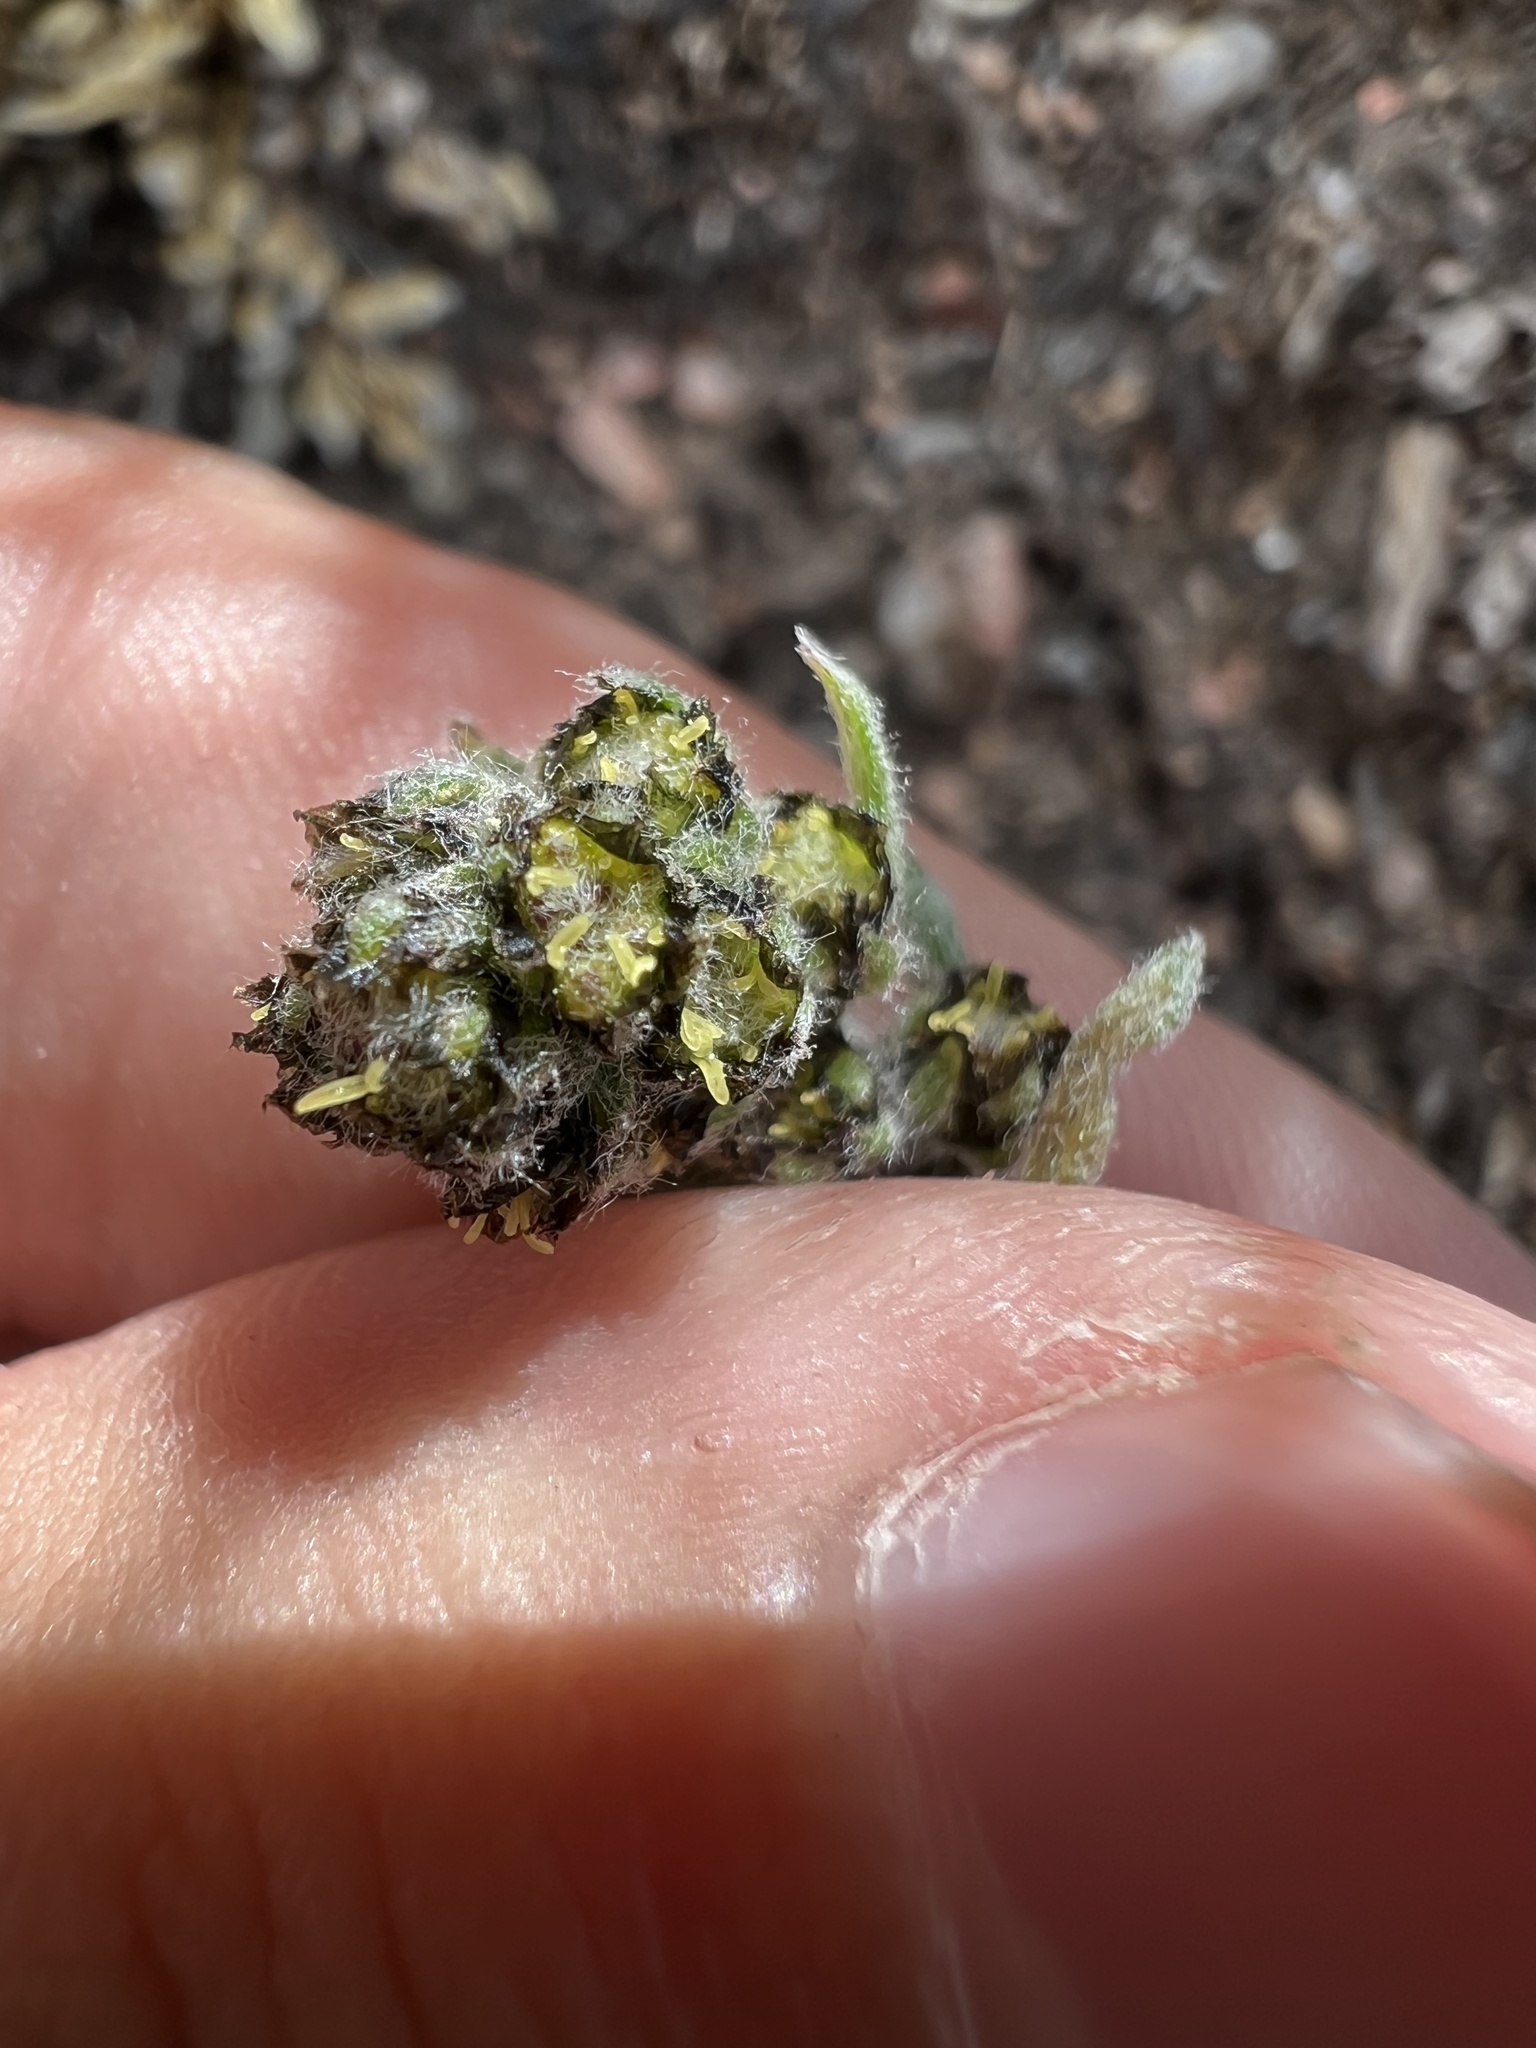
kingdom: Plantae
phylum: Tracheophyta
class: Magnoliopsida
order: Asterales
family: Asteraceae
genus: Artemisia
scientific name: Artemisia scopulorum
